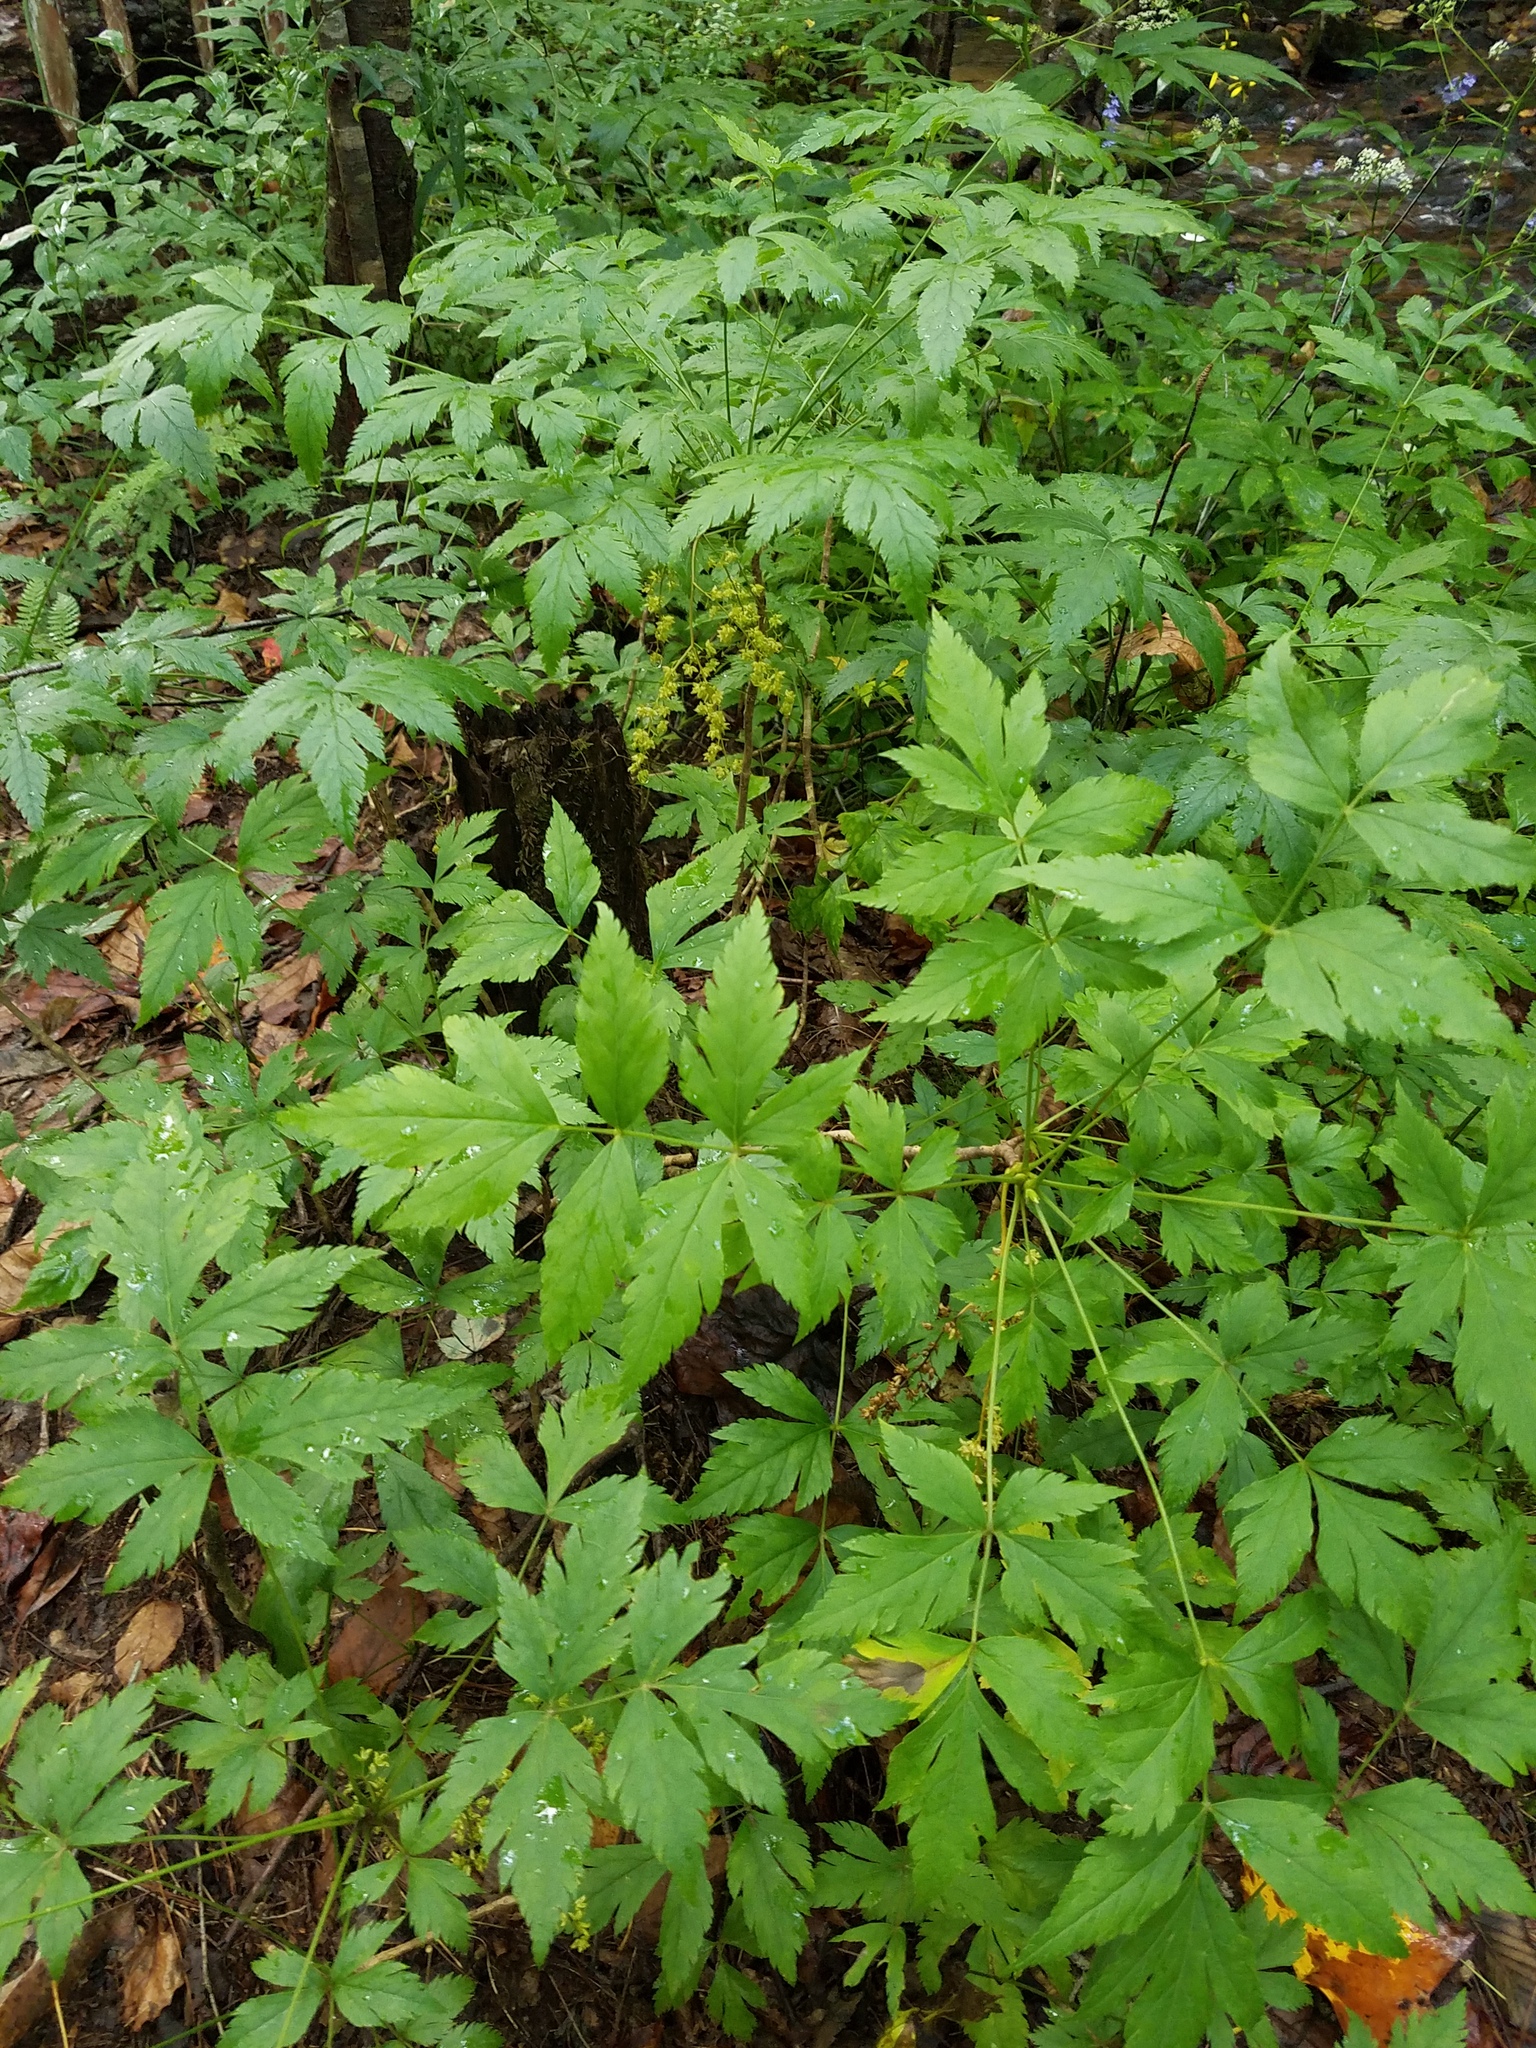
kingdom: Plantae
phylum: Tracheophyta
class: Magnoliopsida
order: Ranunculales
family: Ranunculaceae
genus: Xanthorhiza
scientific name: Xanthorhiza simplicissima
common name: Yellowroot
